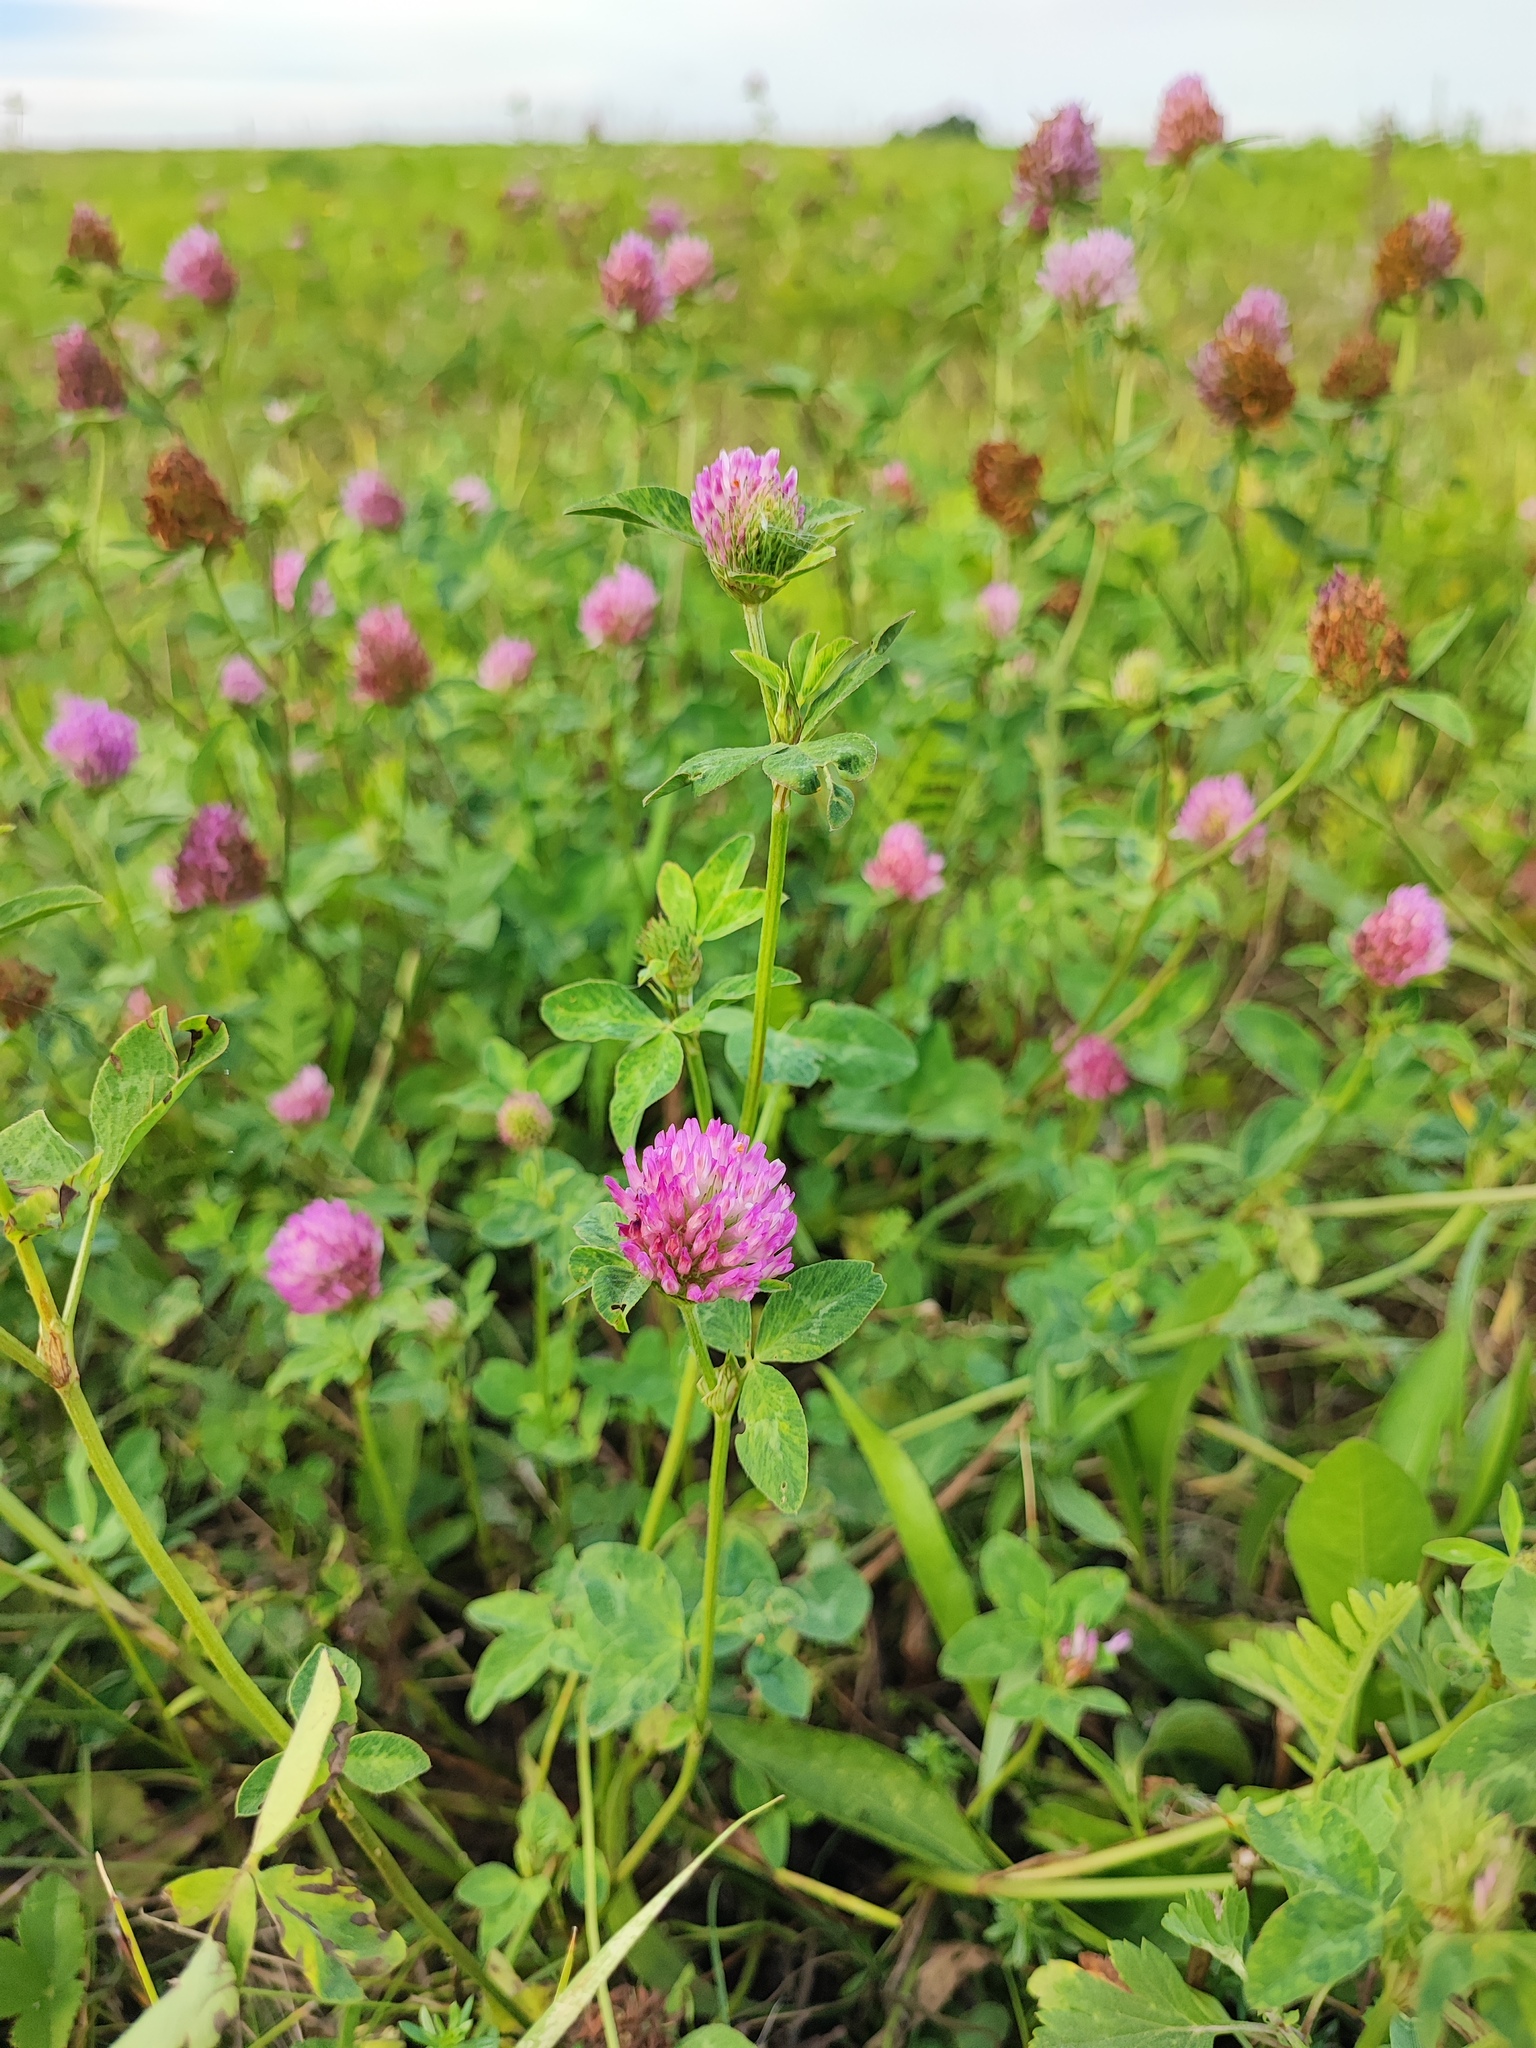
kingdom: Plantae
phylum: Tracheophyta
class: Magnoliopsida
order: Fabales
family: Fabaceae
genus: Trifolium
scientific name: Trifolium pratense
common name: Red clover
